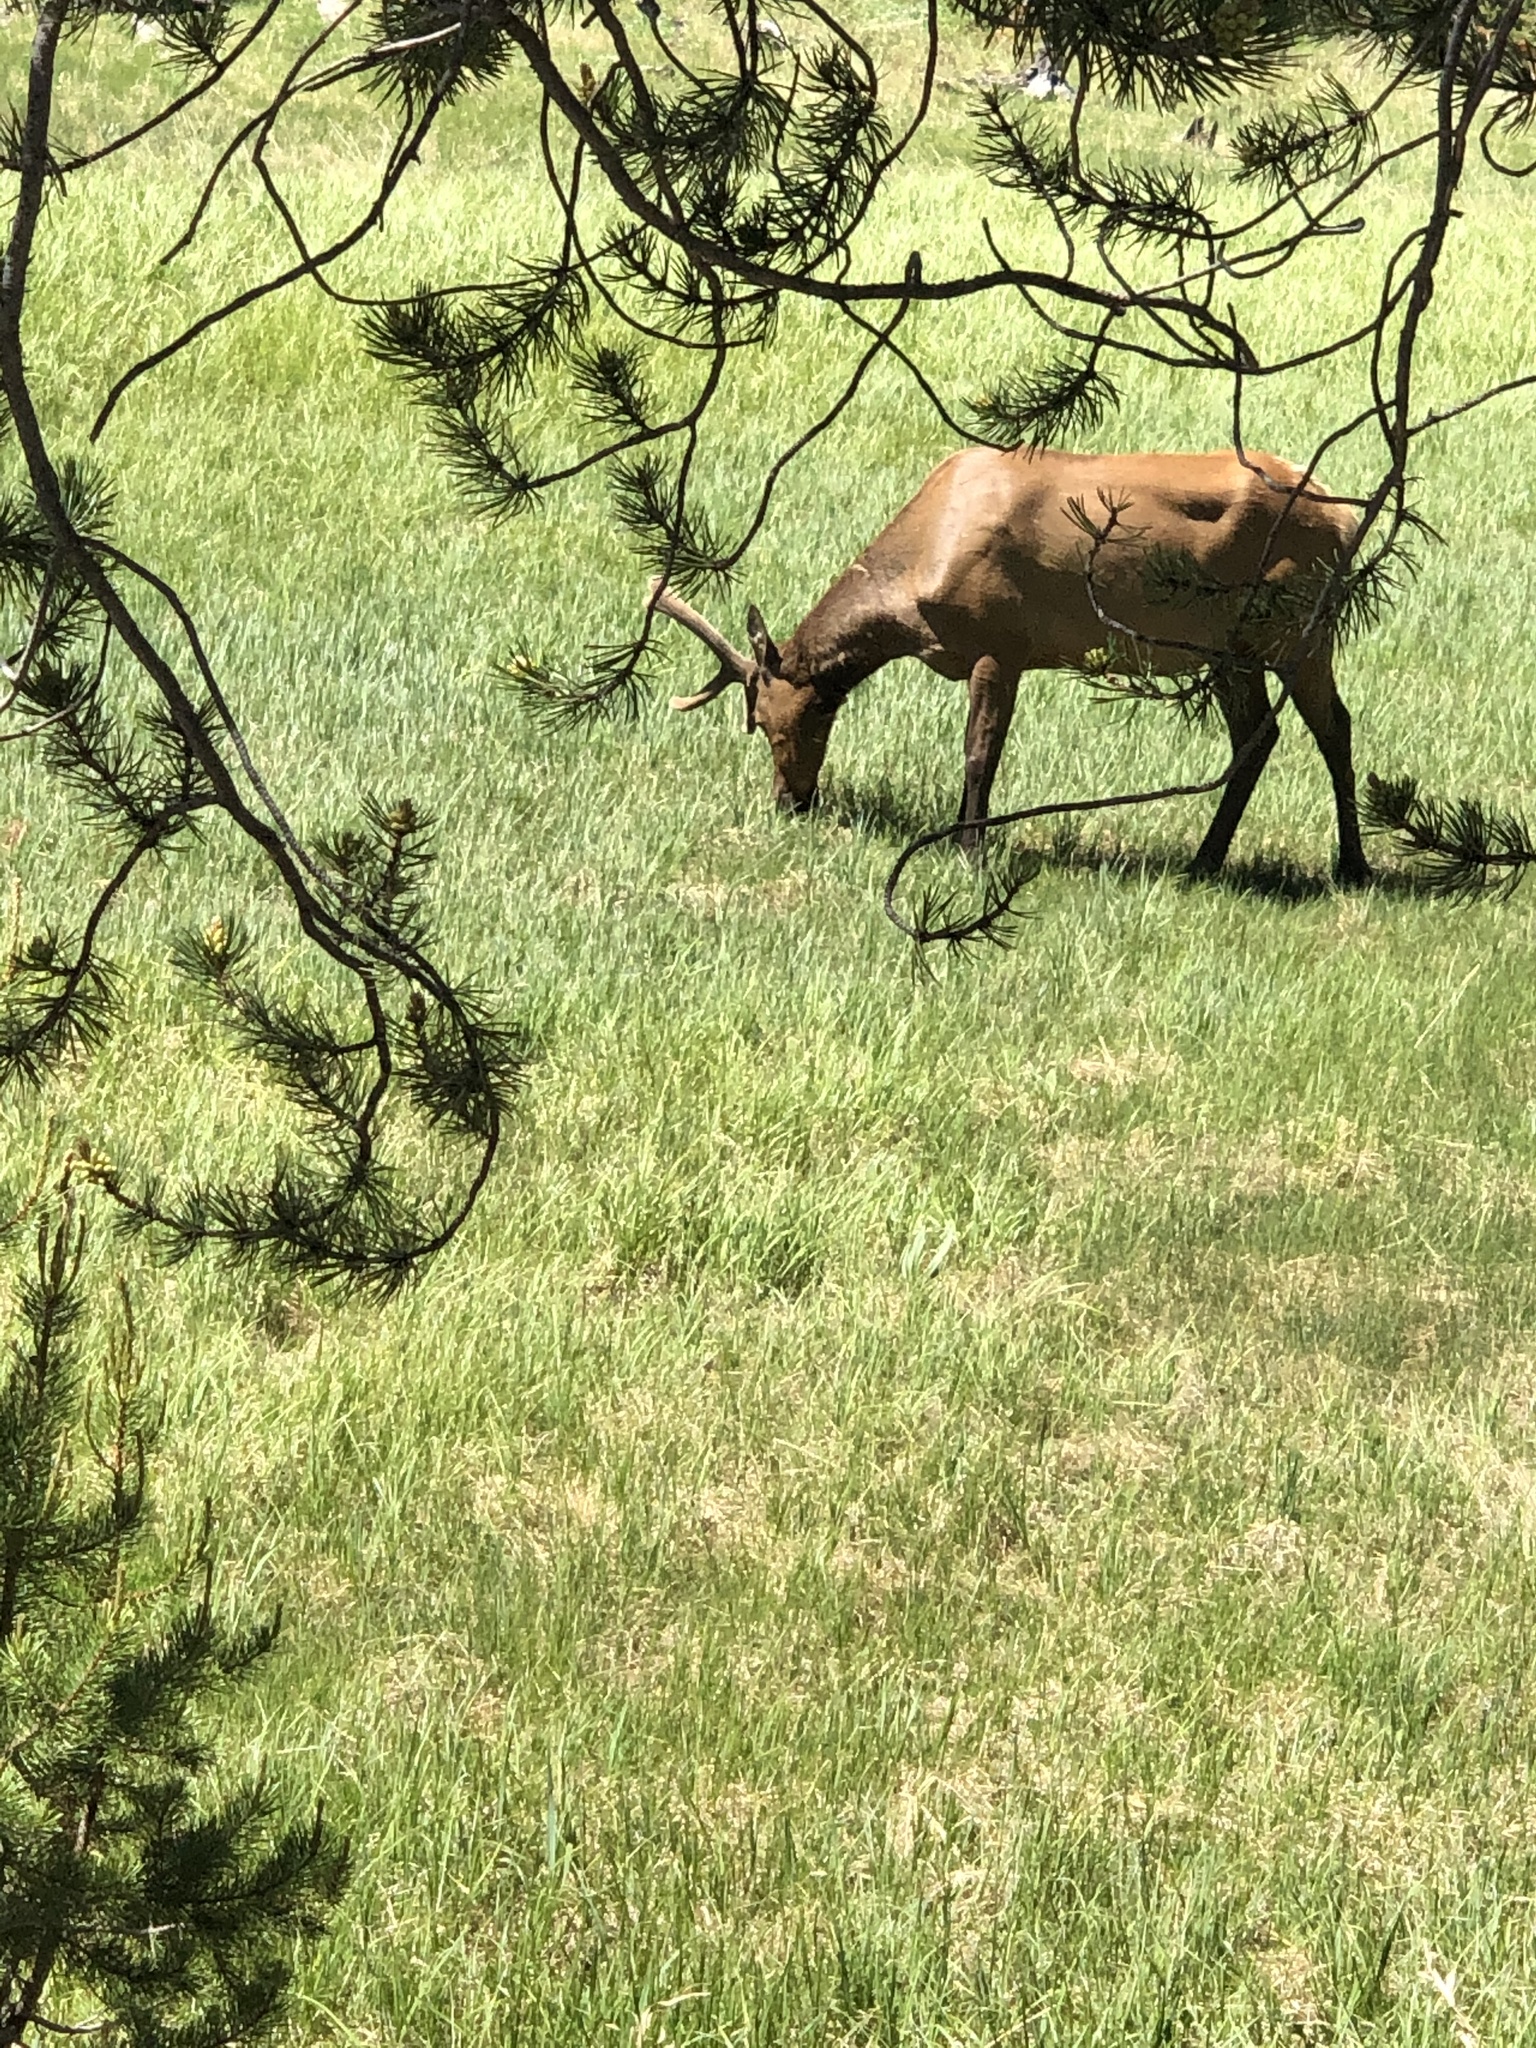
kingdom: Animalia
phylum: Chordata
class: Mammalia
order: Artiodactyla
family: Cervidae
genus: Cervus
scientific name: Cervus elaphus
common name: Red deer
